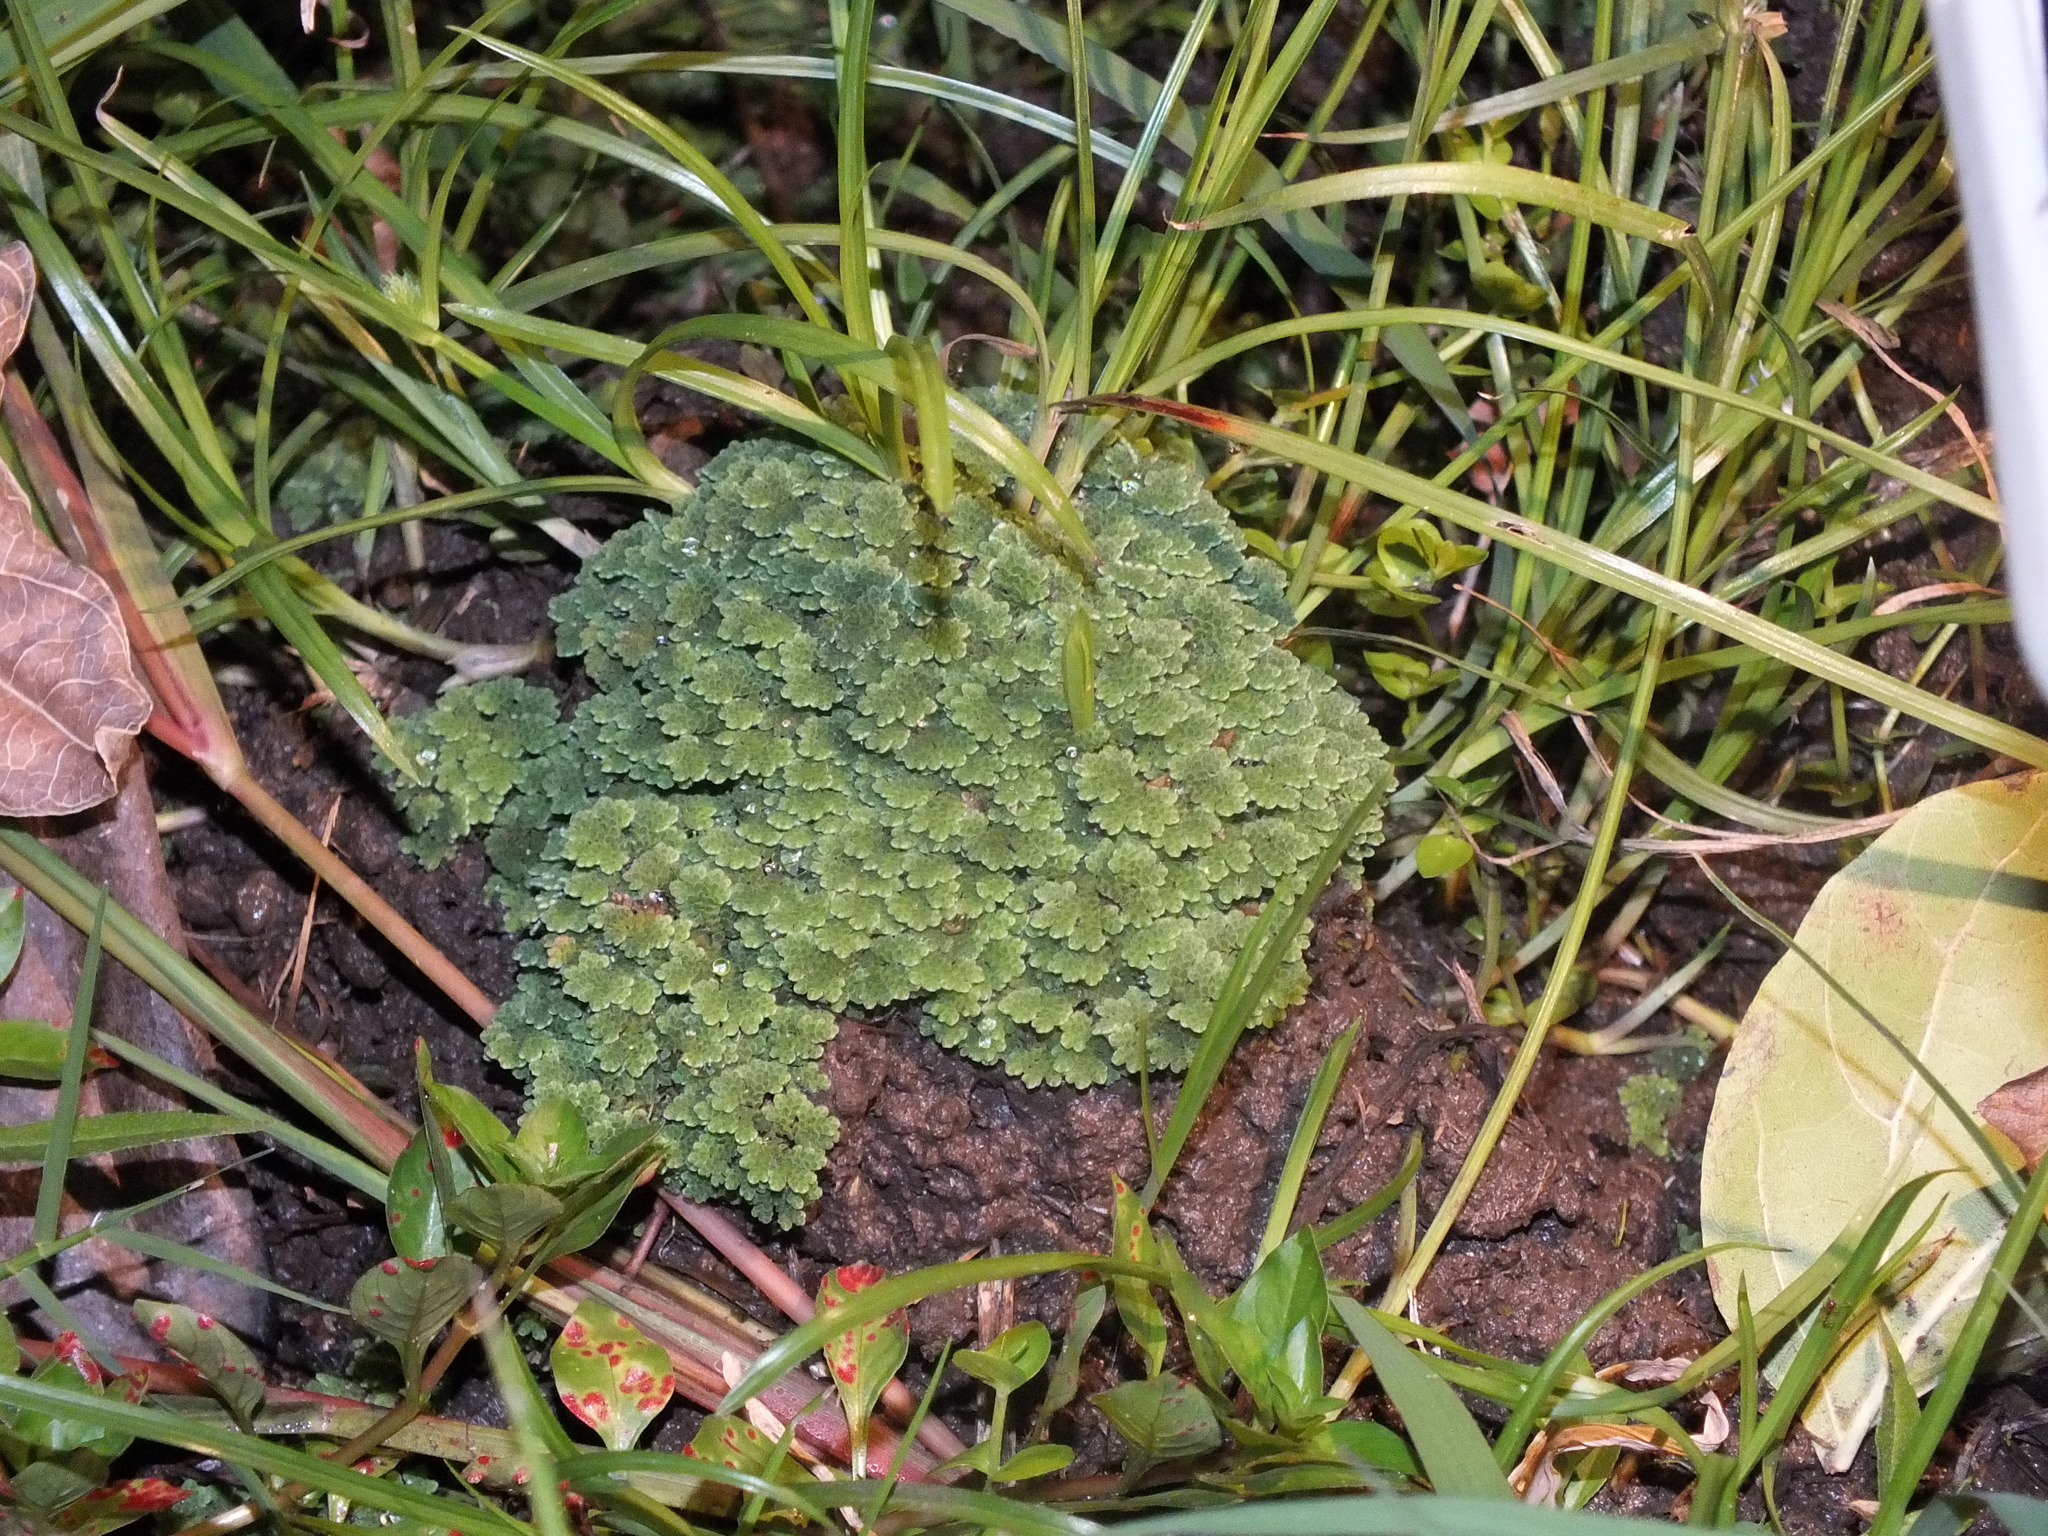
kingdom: Plantae
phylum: Tracheophyta
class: Polypodiopsida
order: Salviniales
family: Salviniaceae
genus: Azolla
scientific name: Azolla filiculoides
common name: Water fern
